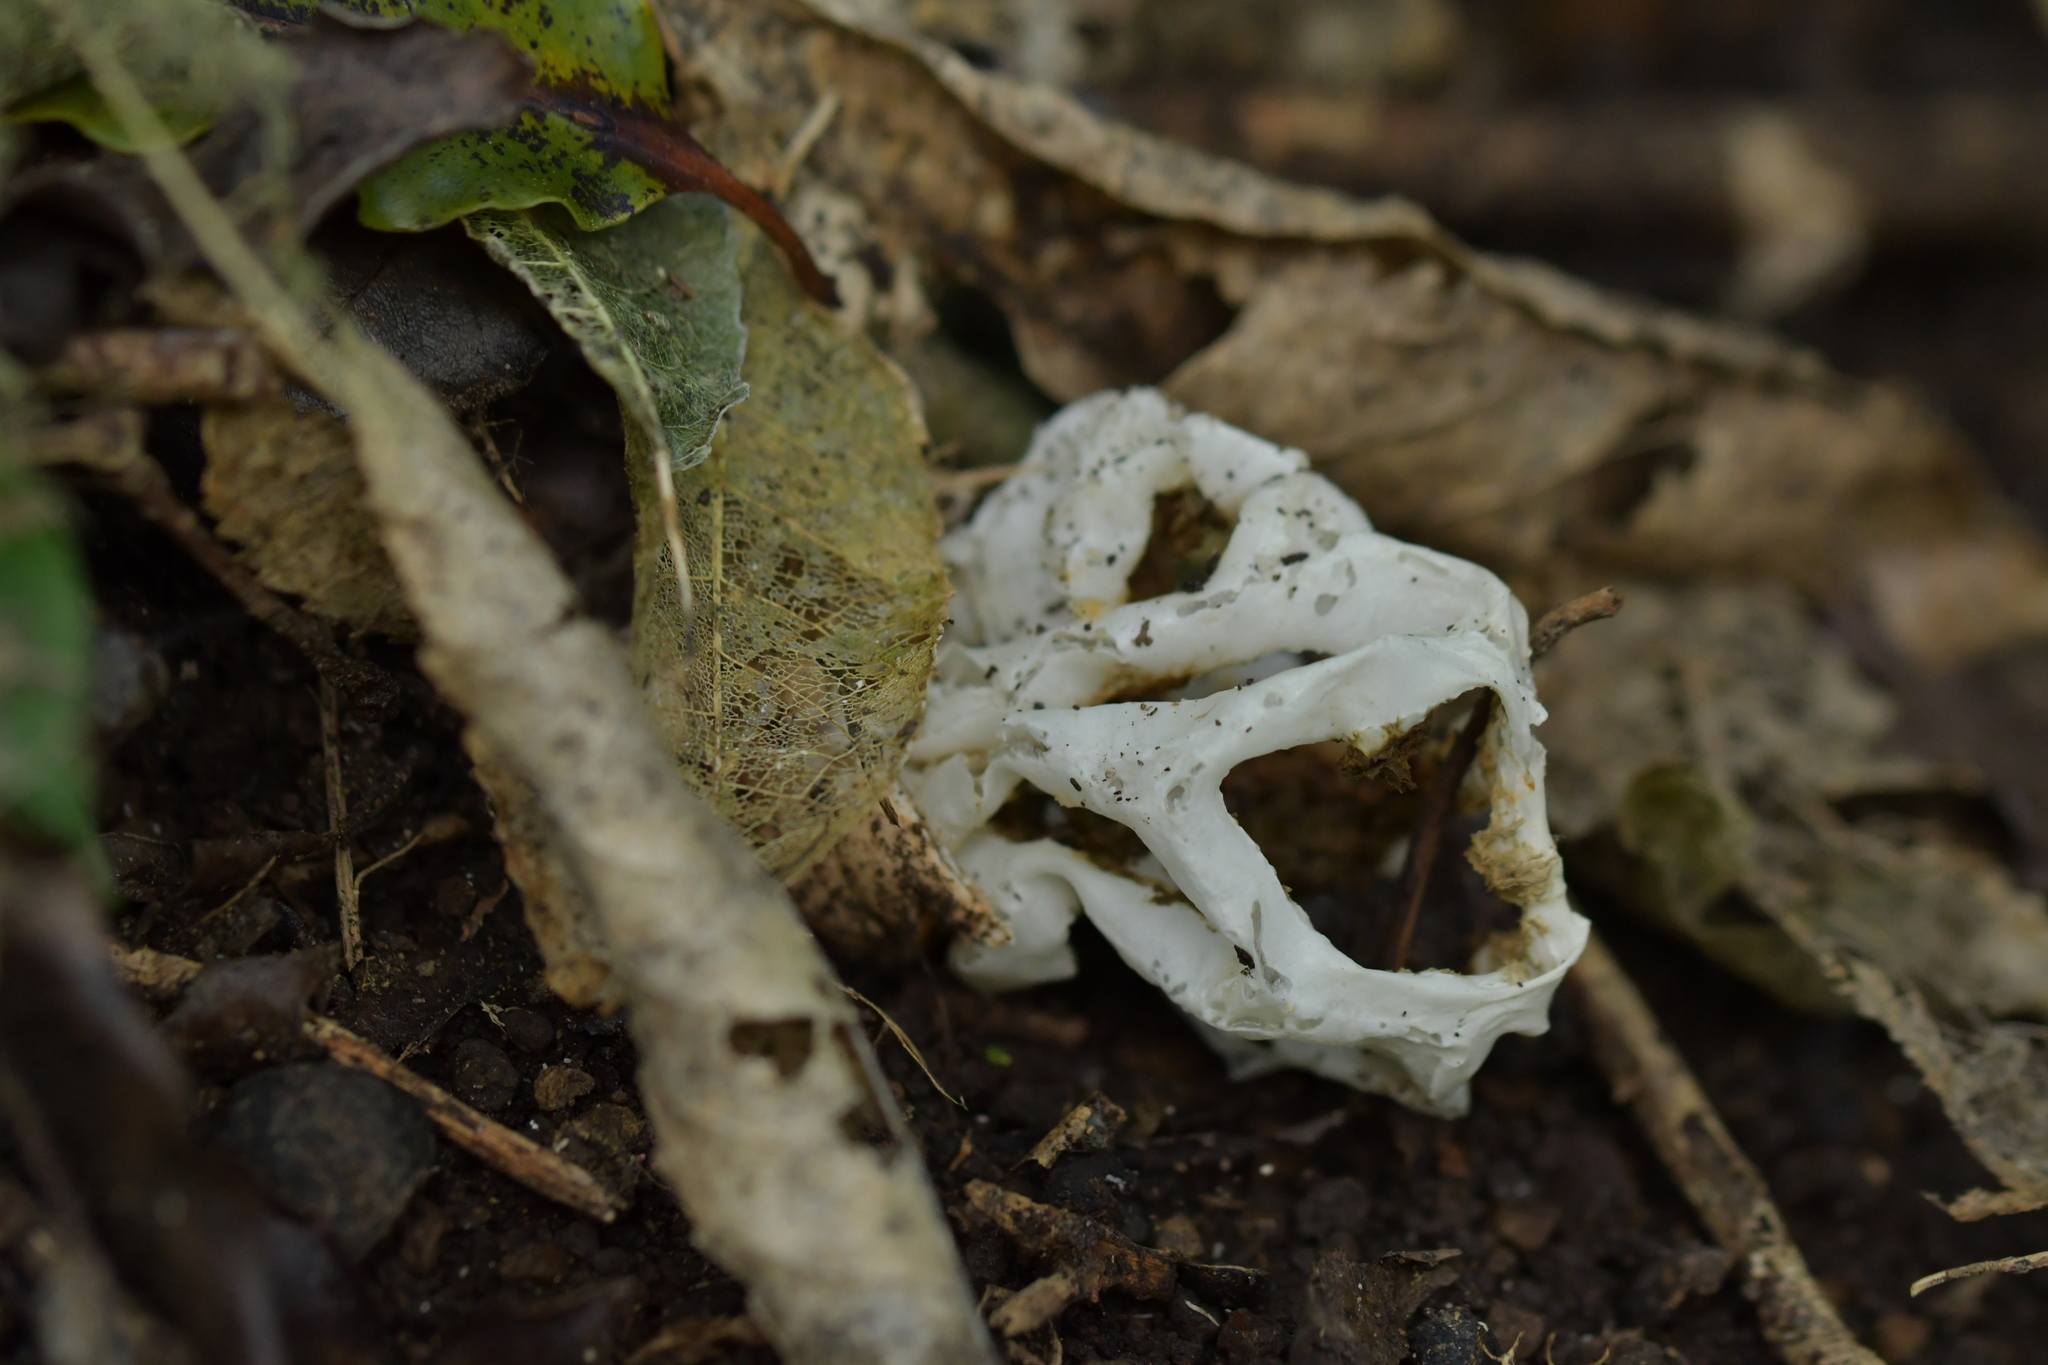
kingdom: Fungi
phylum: Basidiomycota
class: Agaricomycetes
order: Phallales
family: Phallaceae
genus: Ileodictyon
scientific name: Ileodictyon cibarium
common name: Basket fungus
